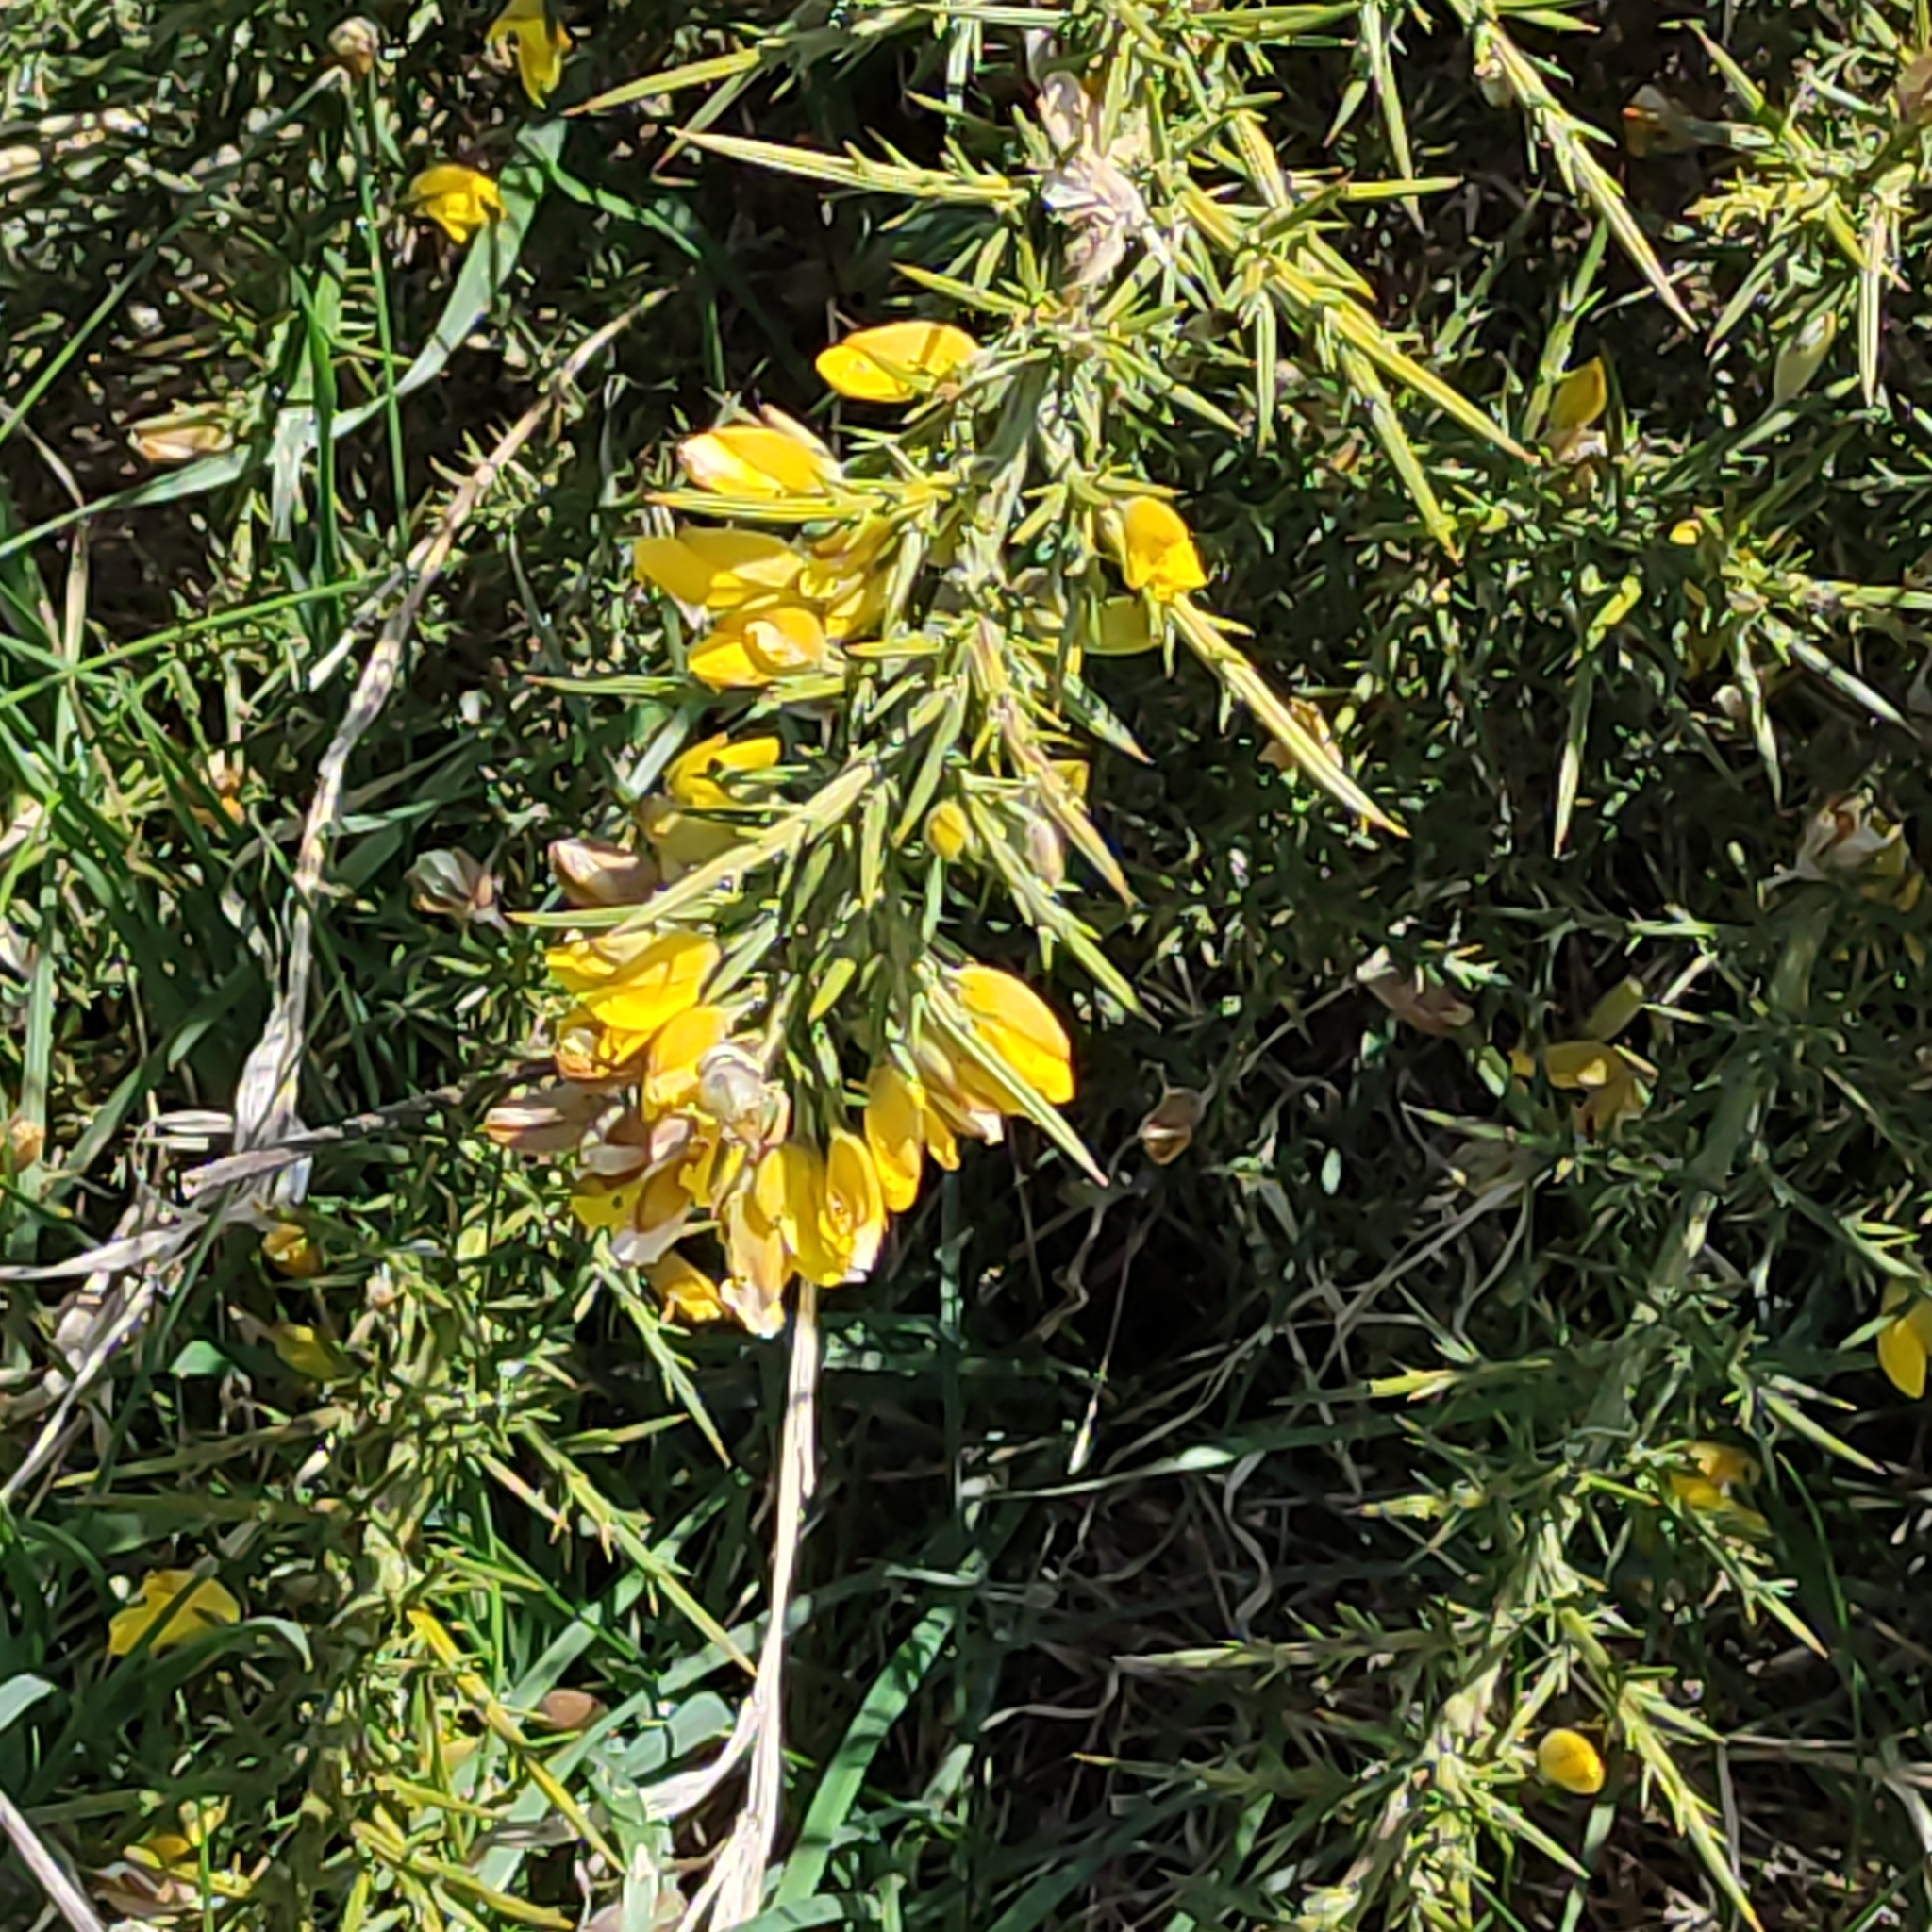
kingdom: Plantae
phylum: Tracheophyta
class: Magnoliopsida
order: Fabales
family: Fabaceae
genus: Ulex
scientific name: Ulex europaeus
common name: Common gorse
